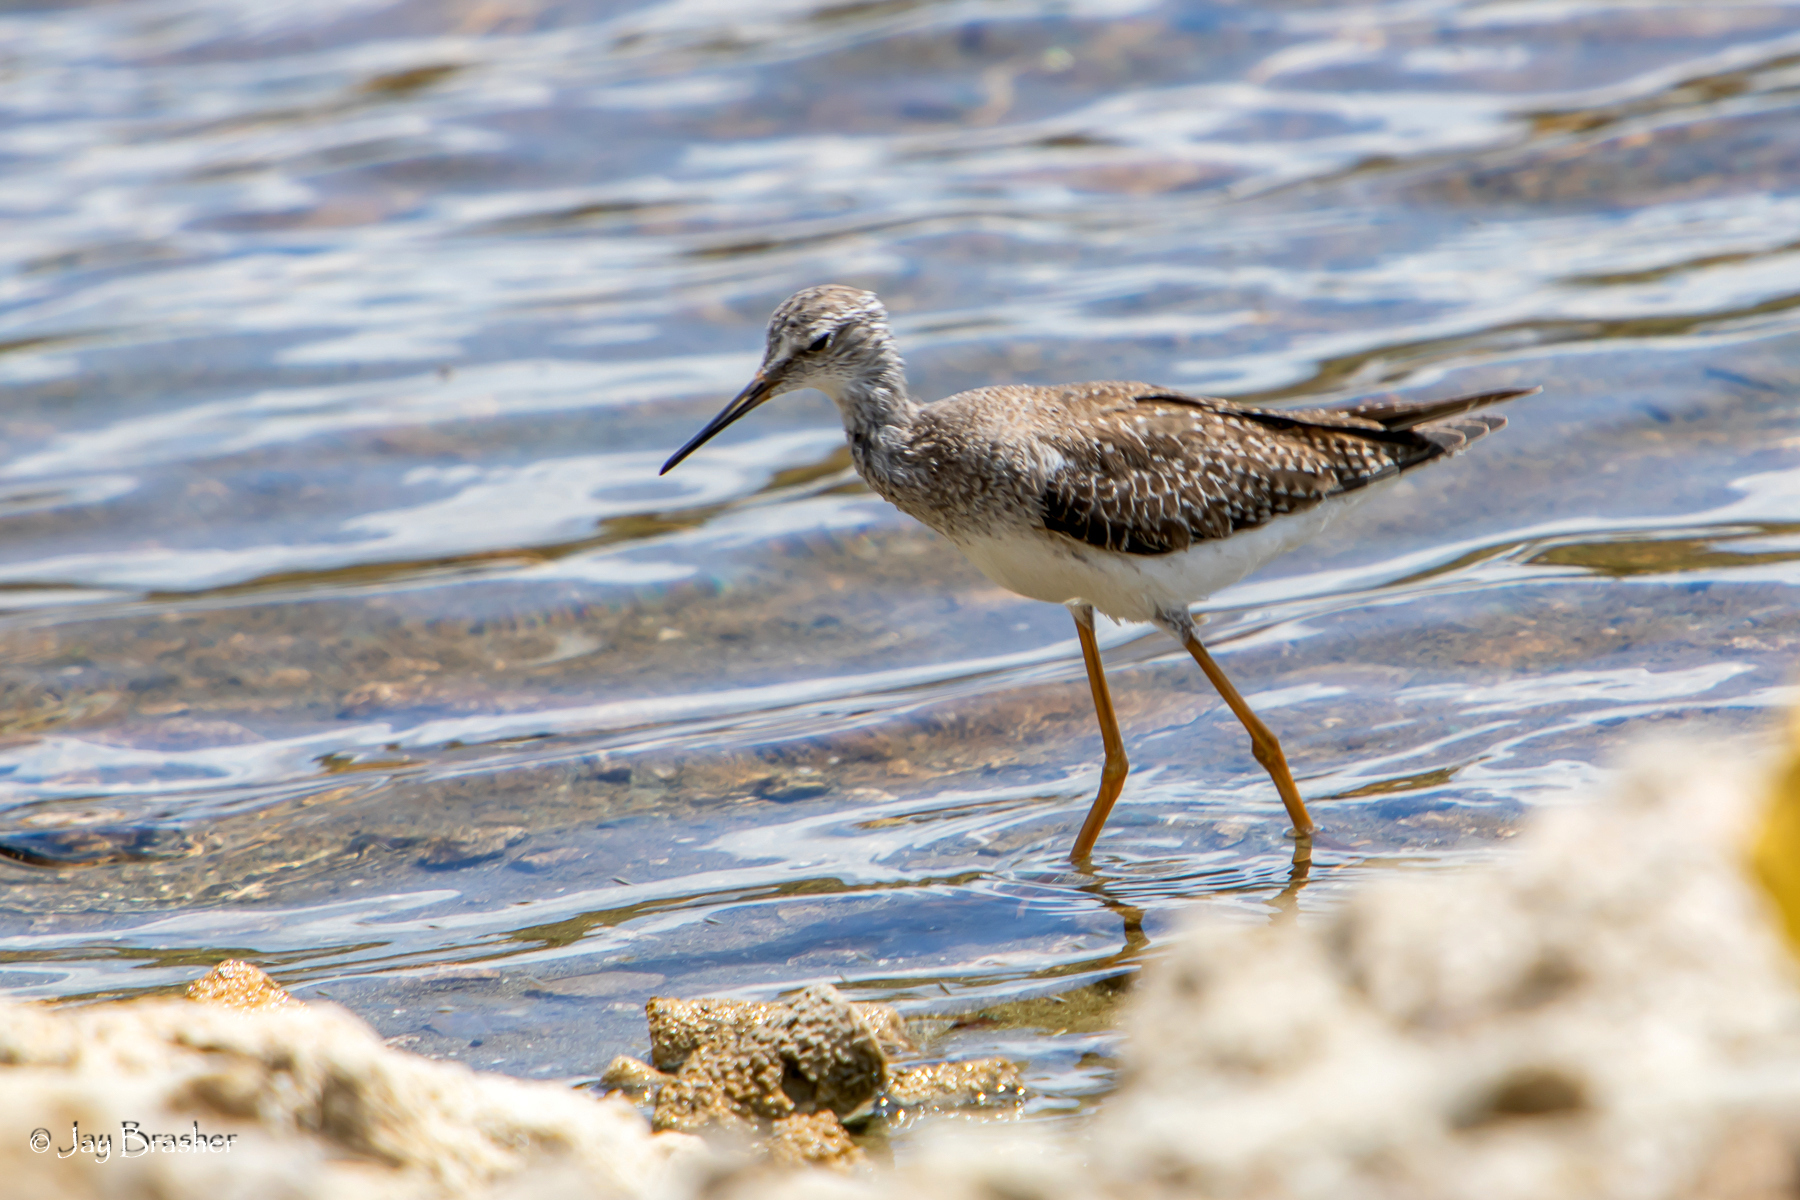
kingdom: Animalia
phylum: Chordata
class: Aves
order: Charadriiformes
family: Scolopacidae
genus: Tringa
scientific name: Tringa flavipes
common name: Lesser yellowlegs
